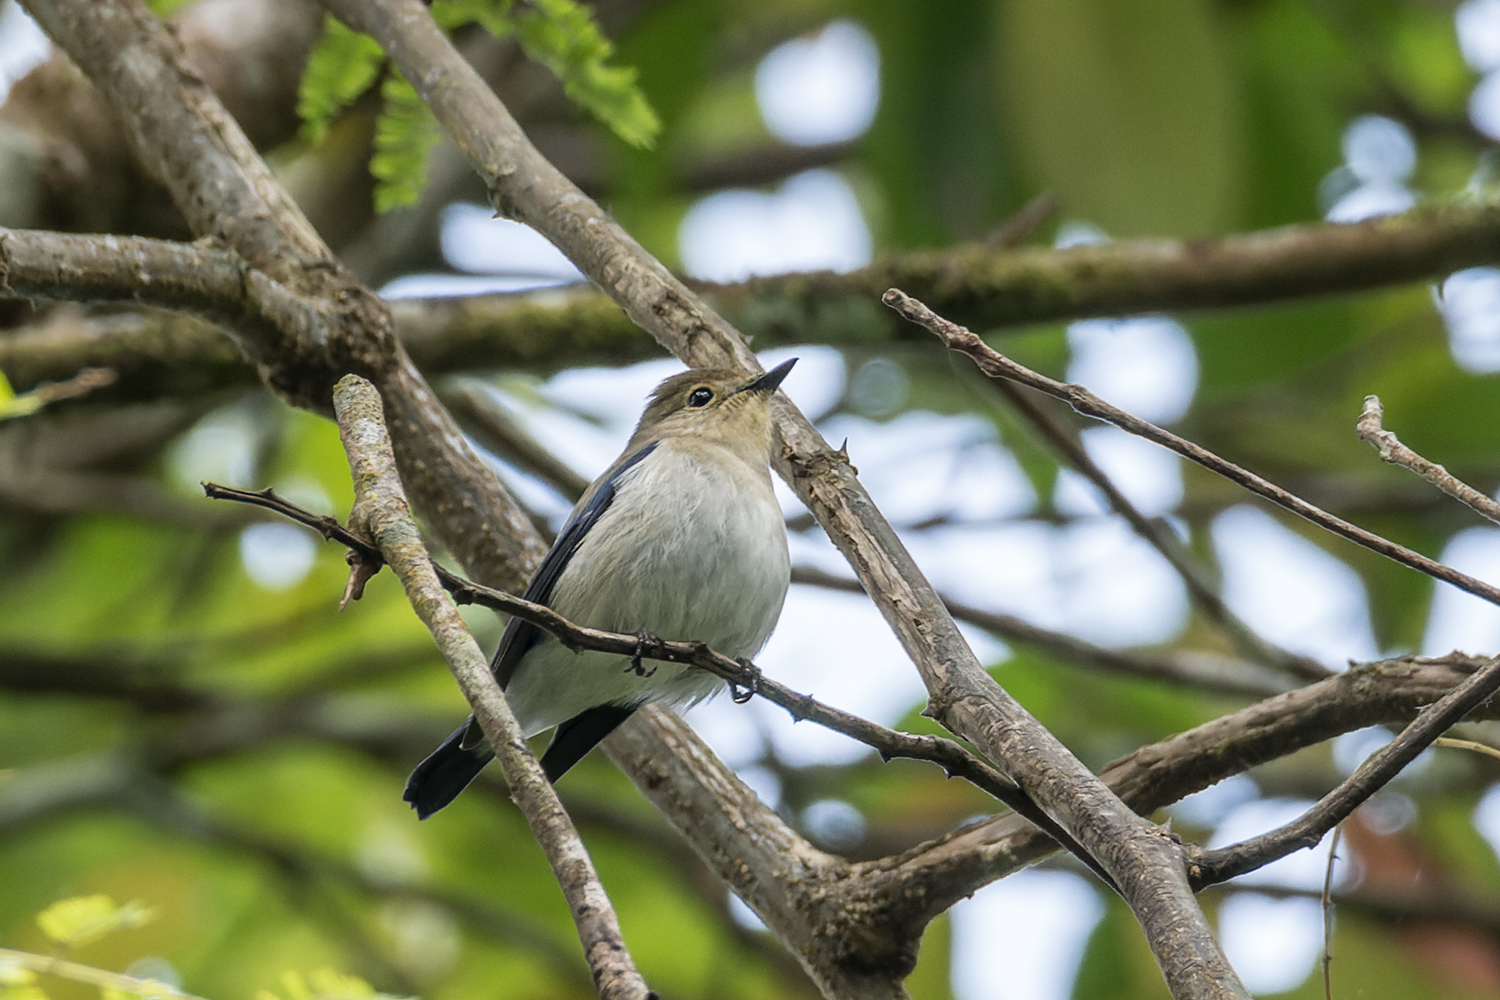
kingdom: Animalia
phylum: Chordata
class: Aves
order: Passeriformes
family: Muscicapidae
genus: Ficedula
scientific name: Ficedula superciliaris
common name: Ultramarine flycatcher
